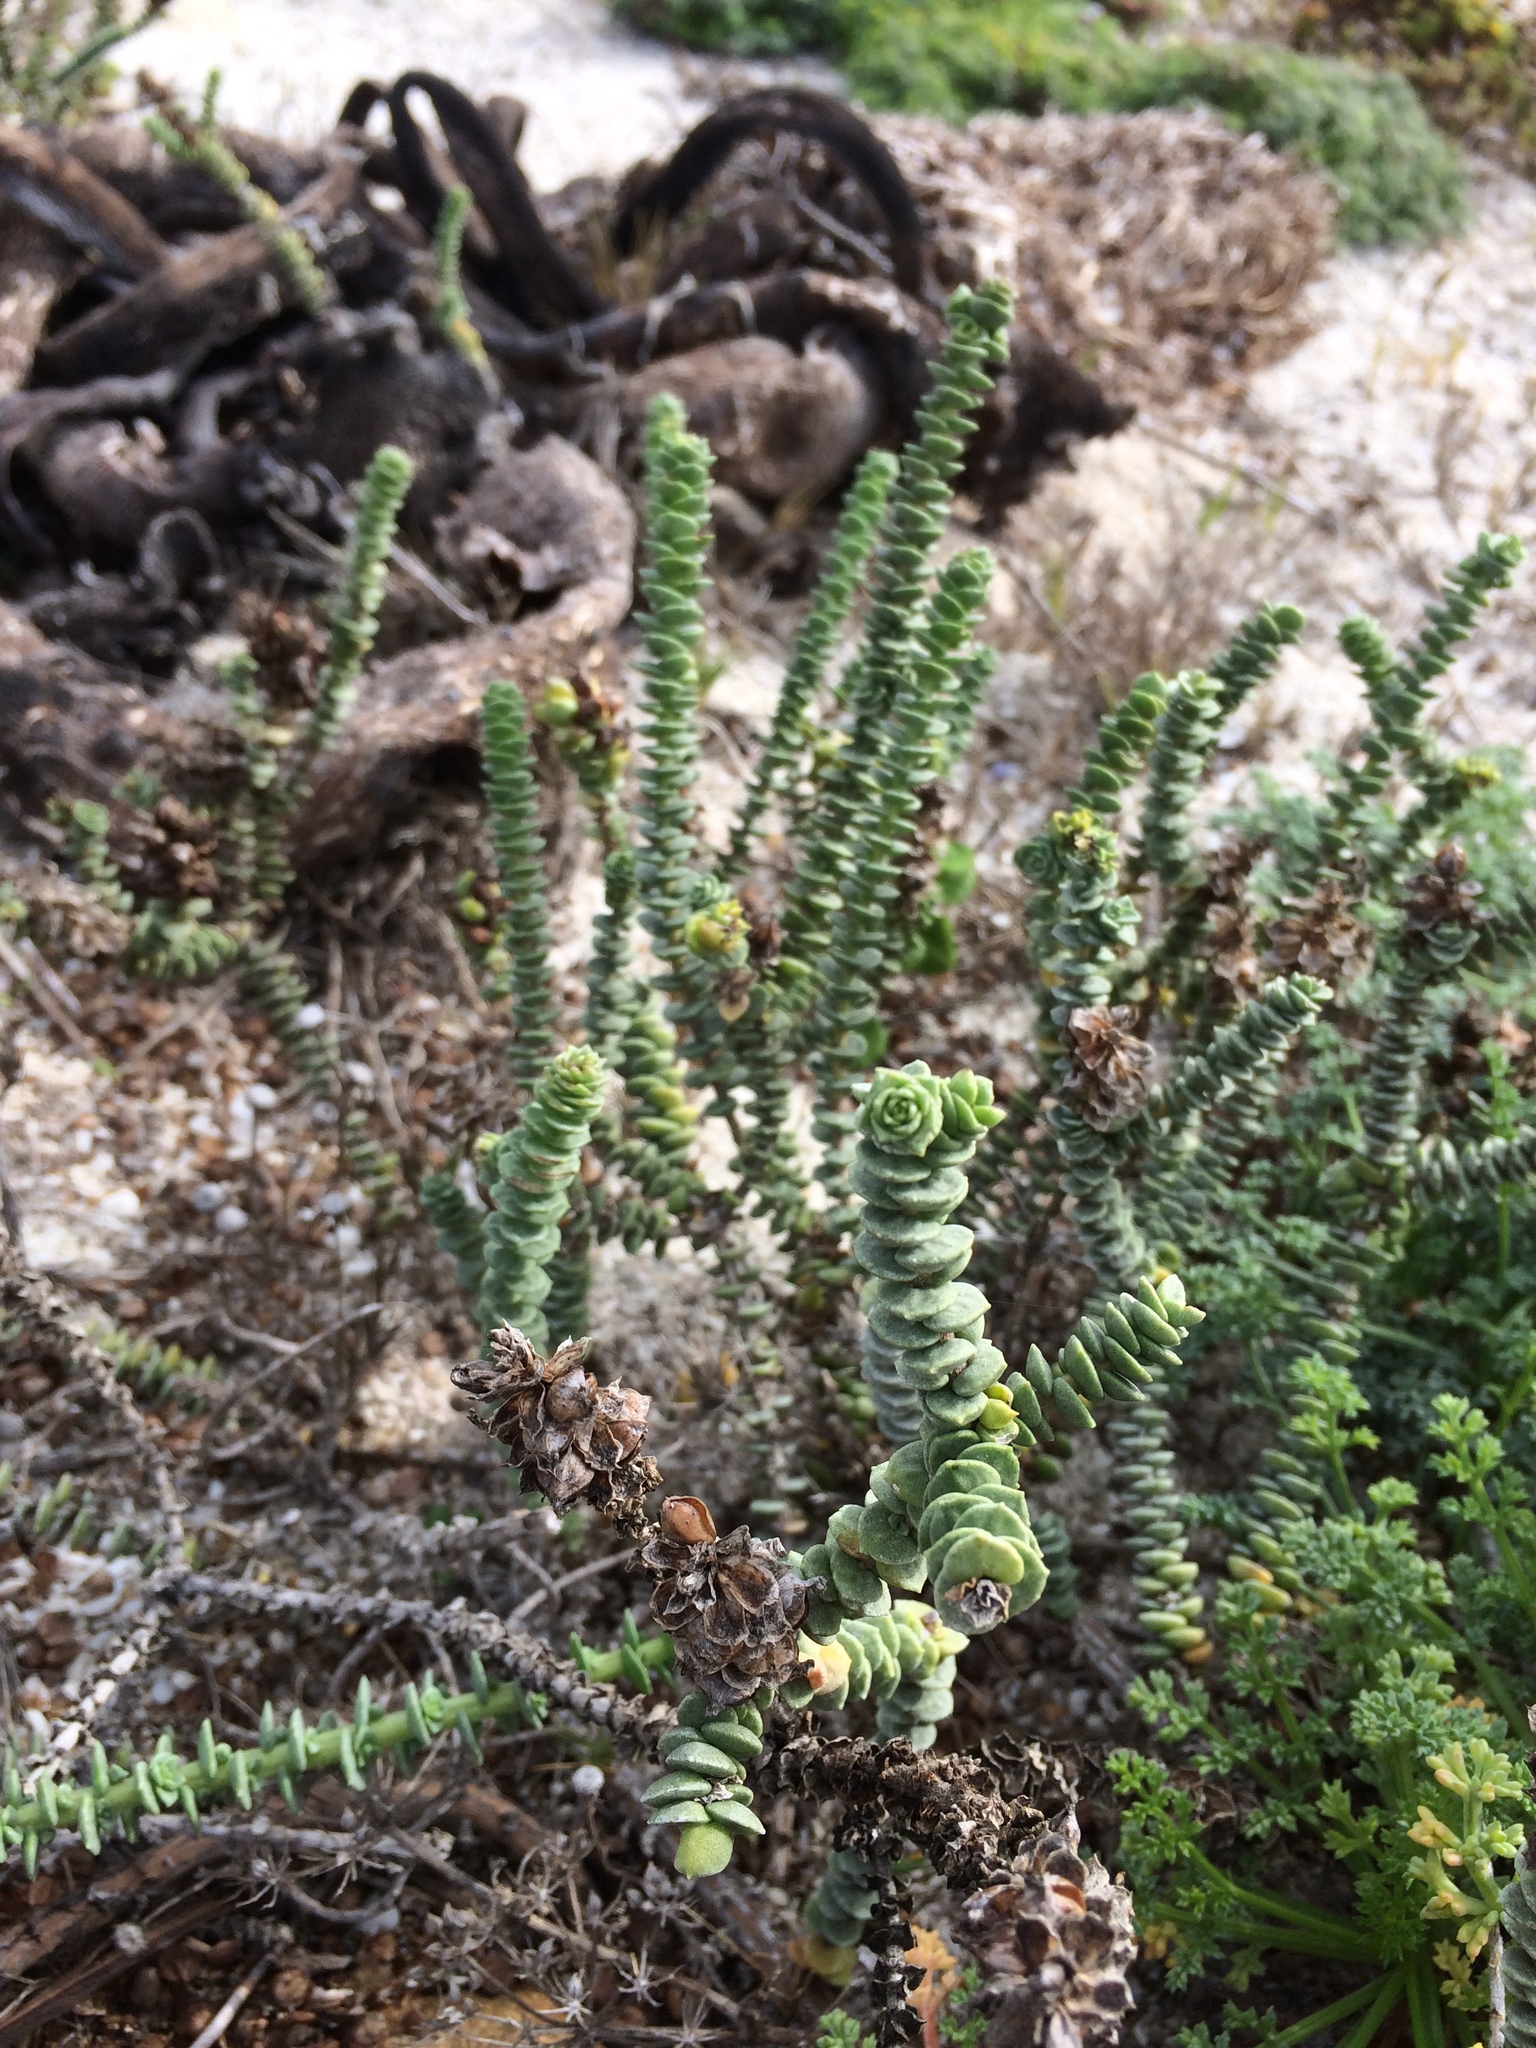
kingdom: Plantae
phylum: Tracheophyta
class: Magnoliopsida
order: Lamiales
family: Scrophulariaceae
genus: Hebenstretia
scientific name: Hebenstretia cordata
